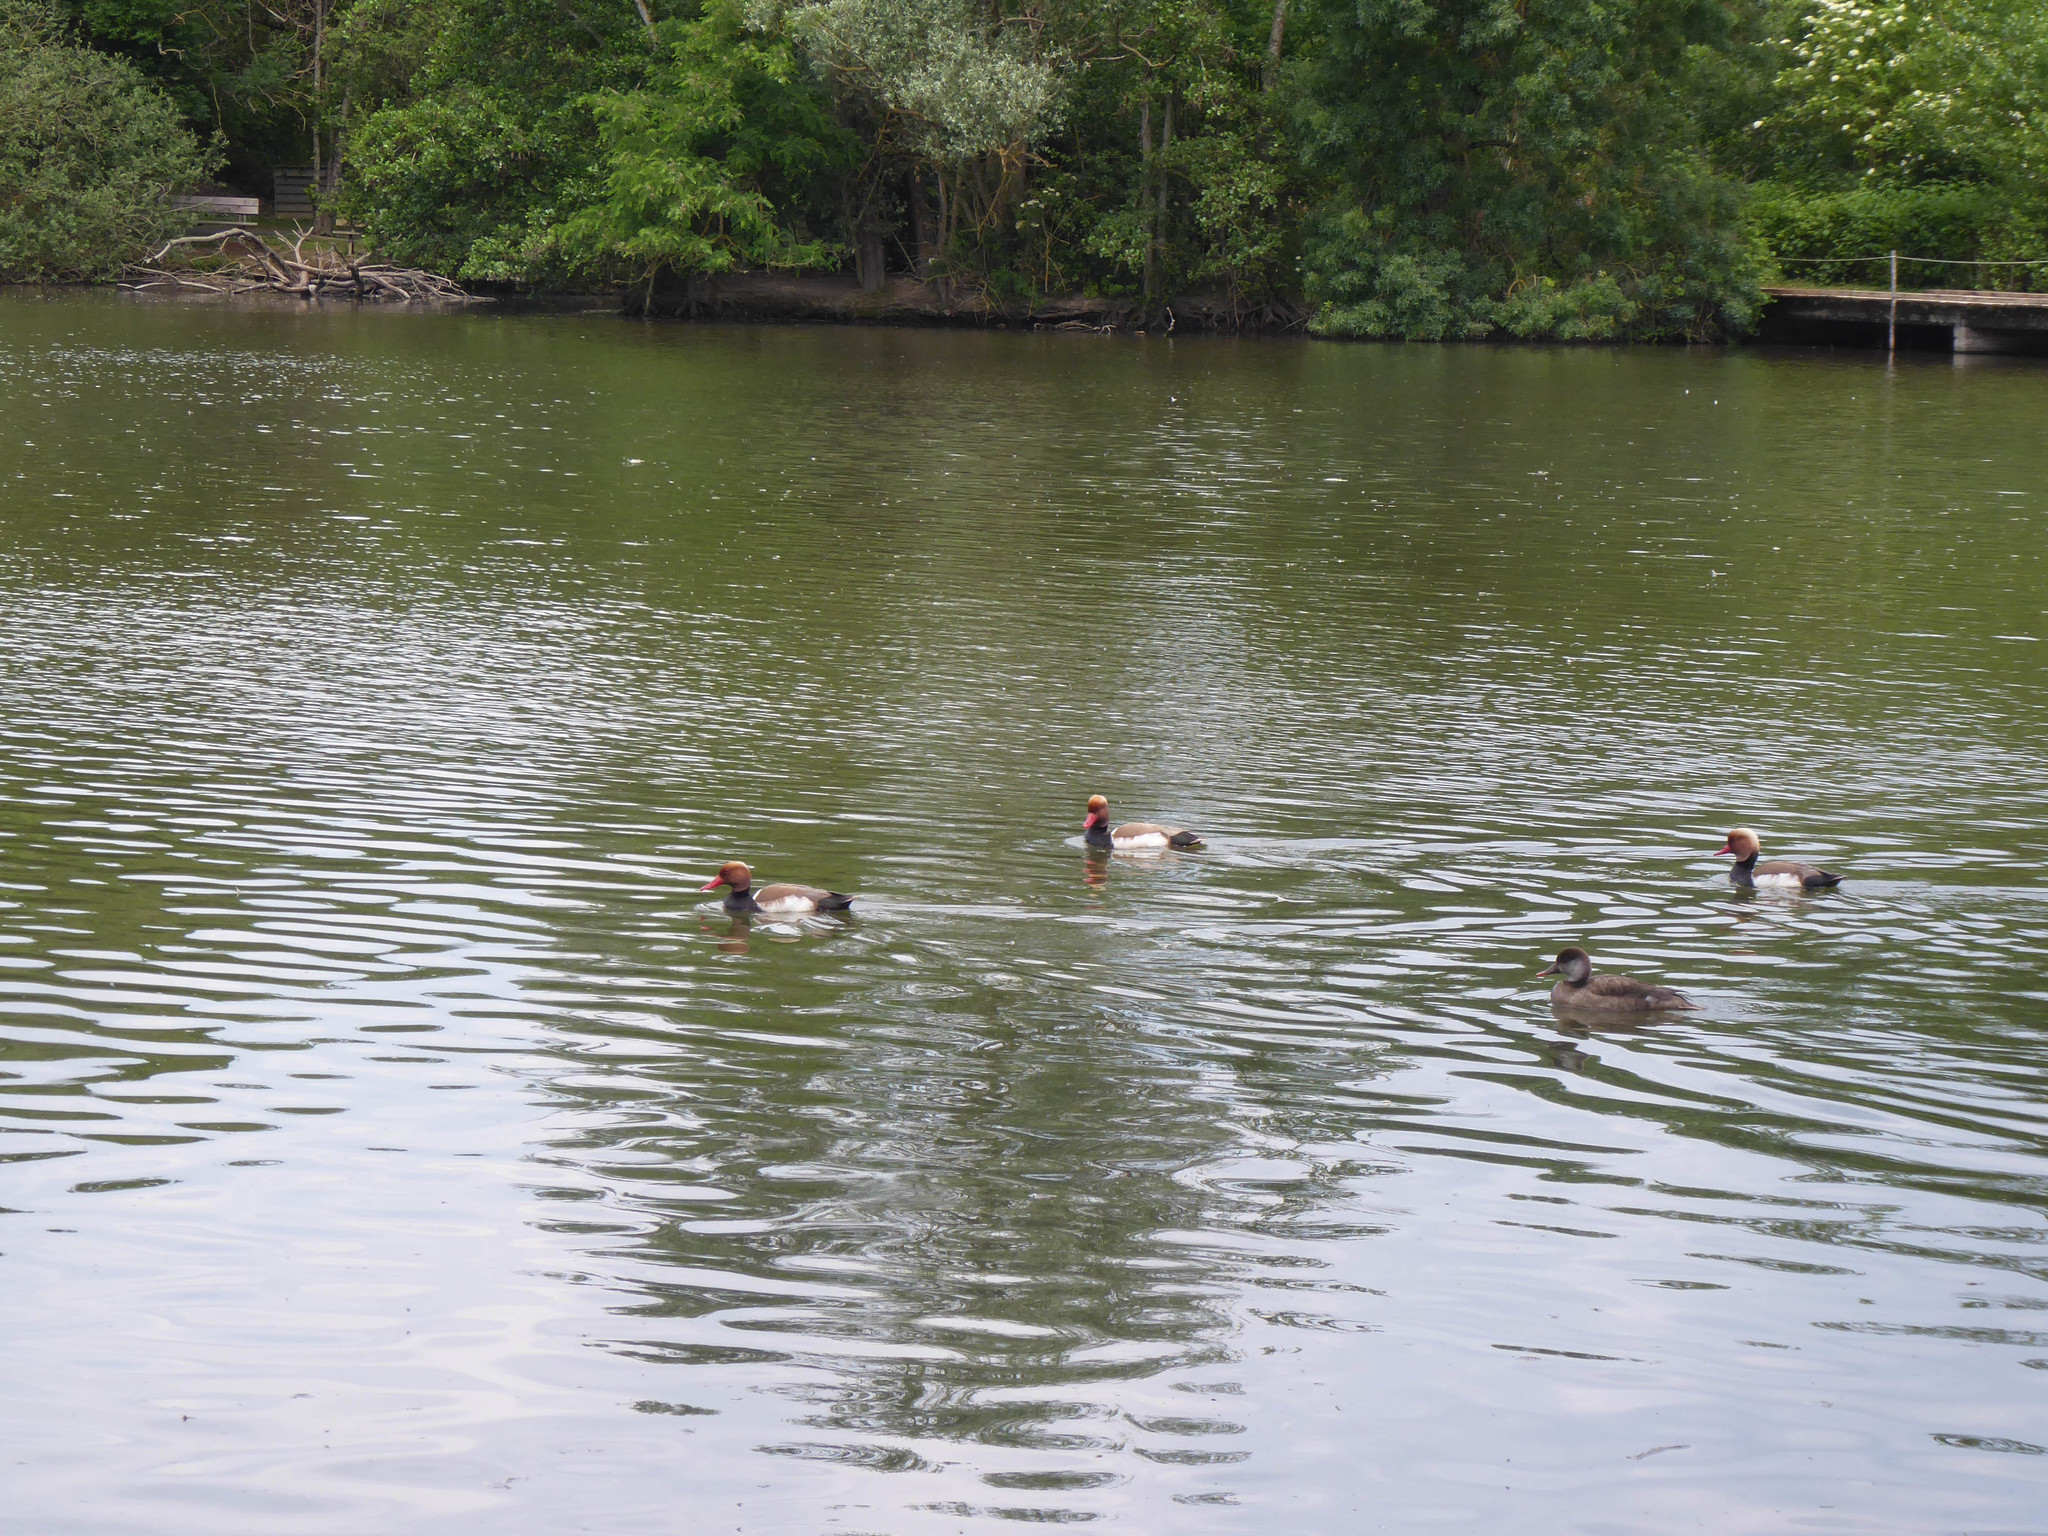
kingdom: Animalia
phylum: Chordata
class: Aves
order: Anseriformes
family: Anatidae
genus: Netta
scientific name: Netta rufina
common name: Red-crested pochard
